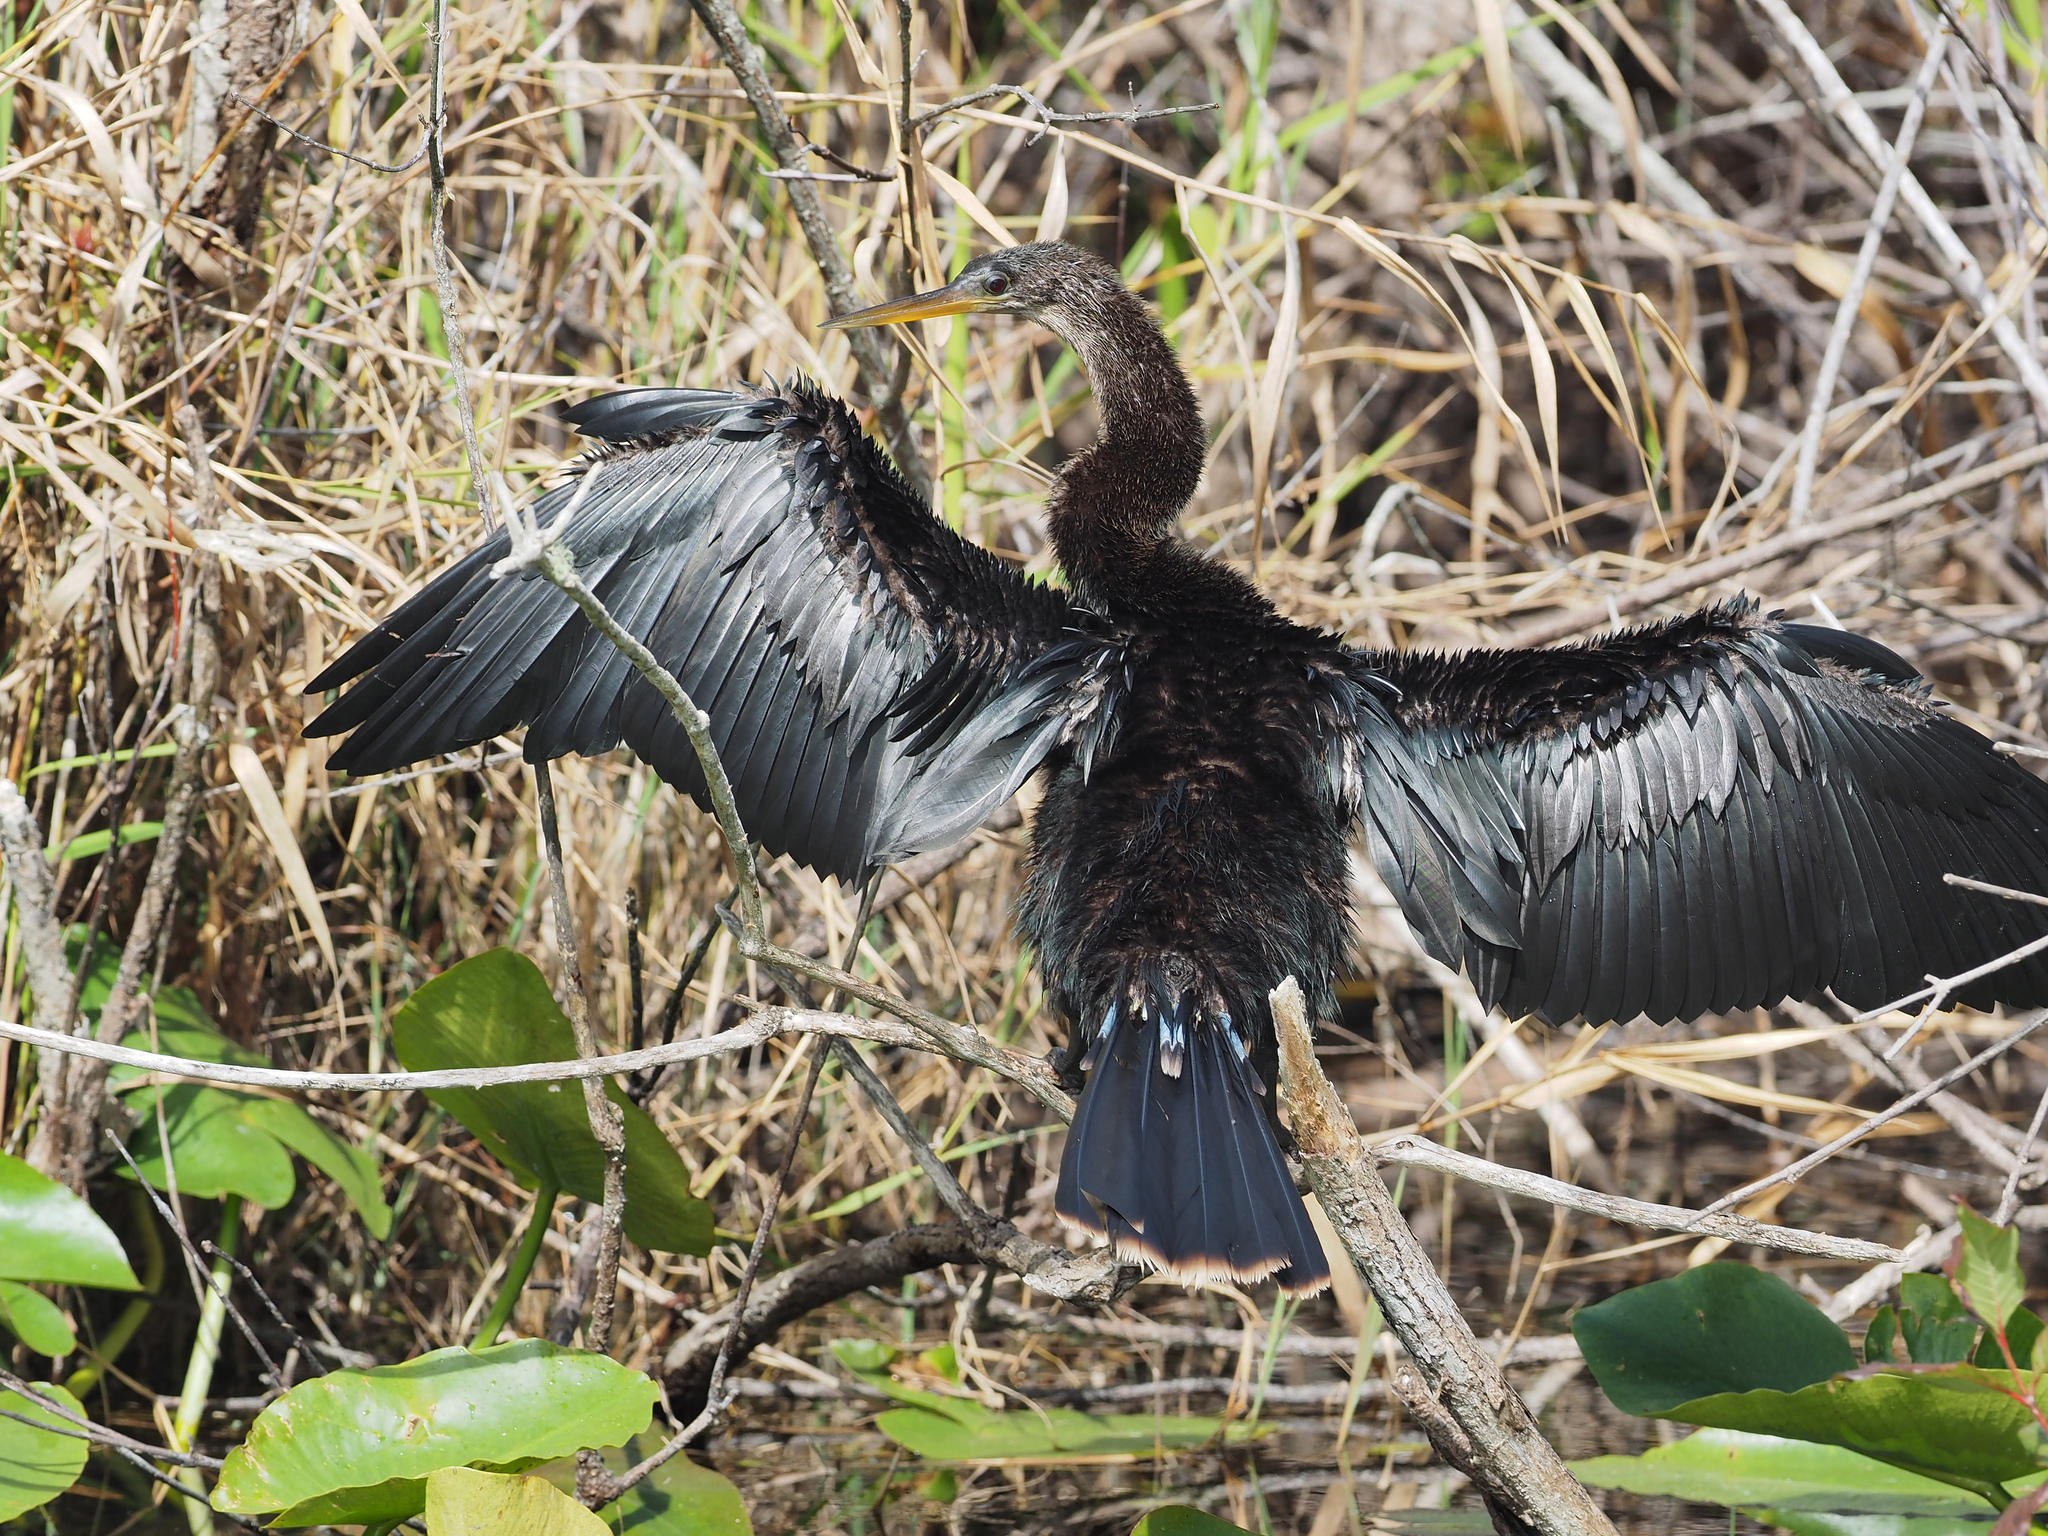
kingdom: Animalia
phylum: Chordata
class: Aves
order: Suliformes
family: Anhingidae
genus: Anhinga
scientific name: Anhinga anhinga
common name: Anhinga
